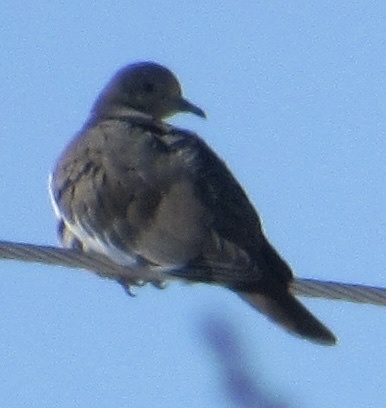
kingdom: Animalia
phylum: Chordata
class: Aves
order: Columbiformes
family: Columbidae
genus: Zenaida
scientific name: Zenaida asiatica
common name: White-winged dove
